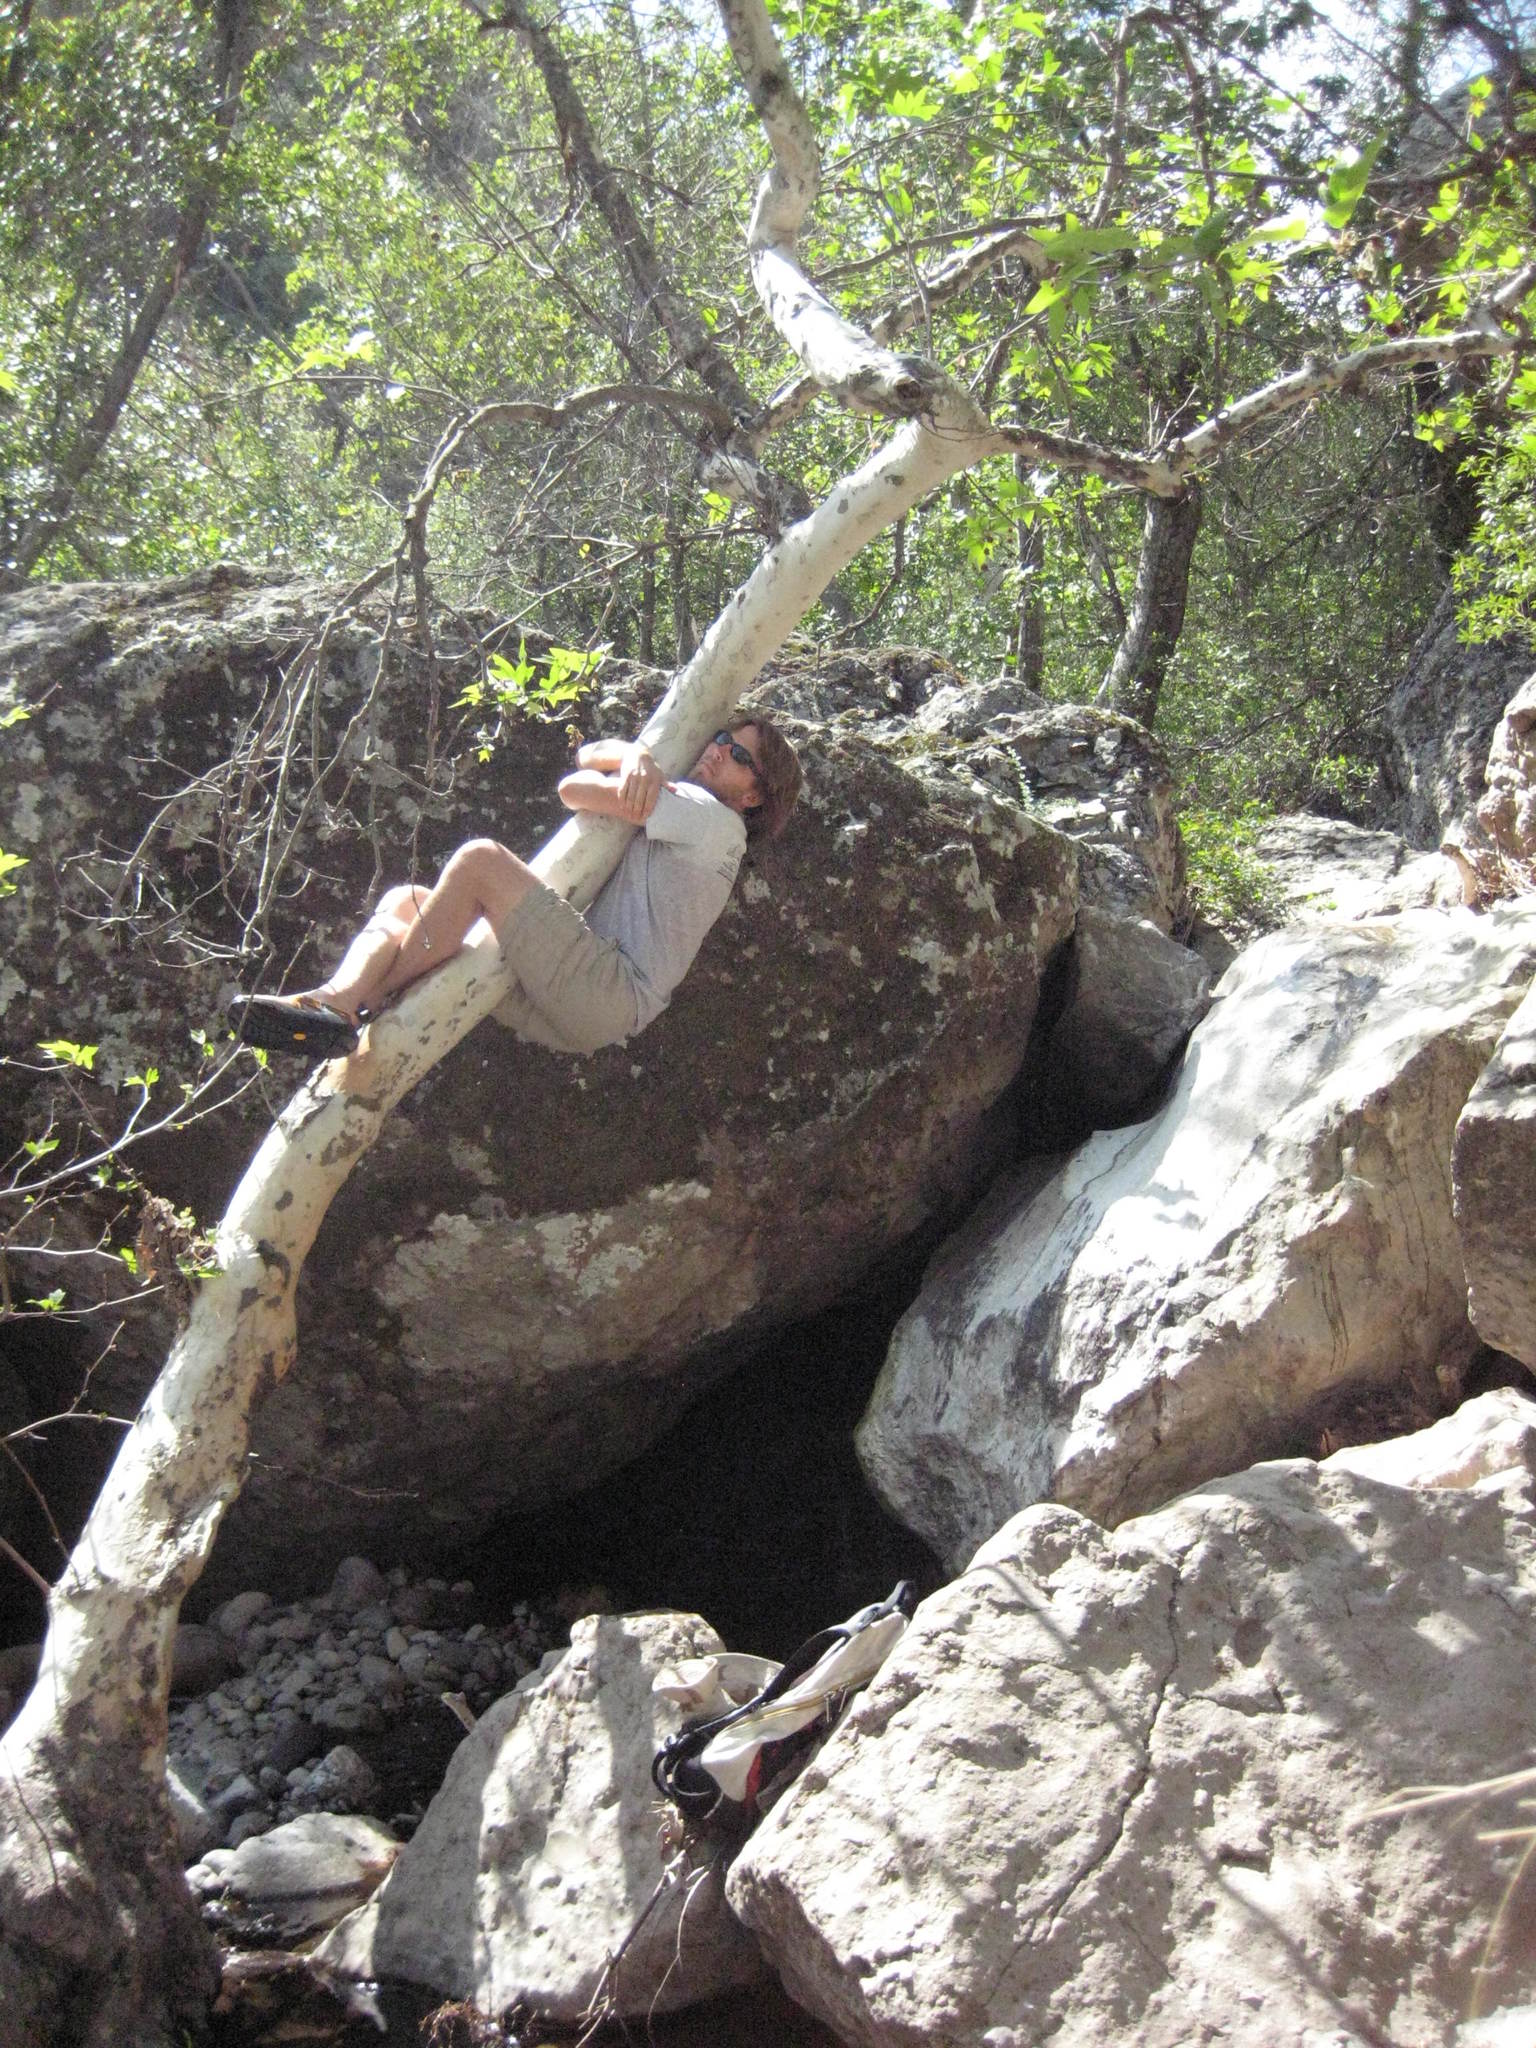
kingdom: Plantae
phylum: Tracheophyta
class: Magnoliopsida
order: Proteales
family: Platanaceae
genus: Platanus
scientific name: Platanus racemosa
